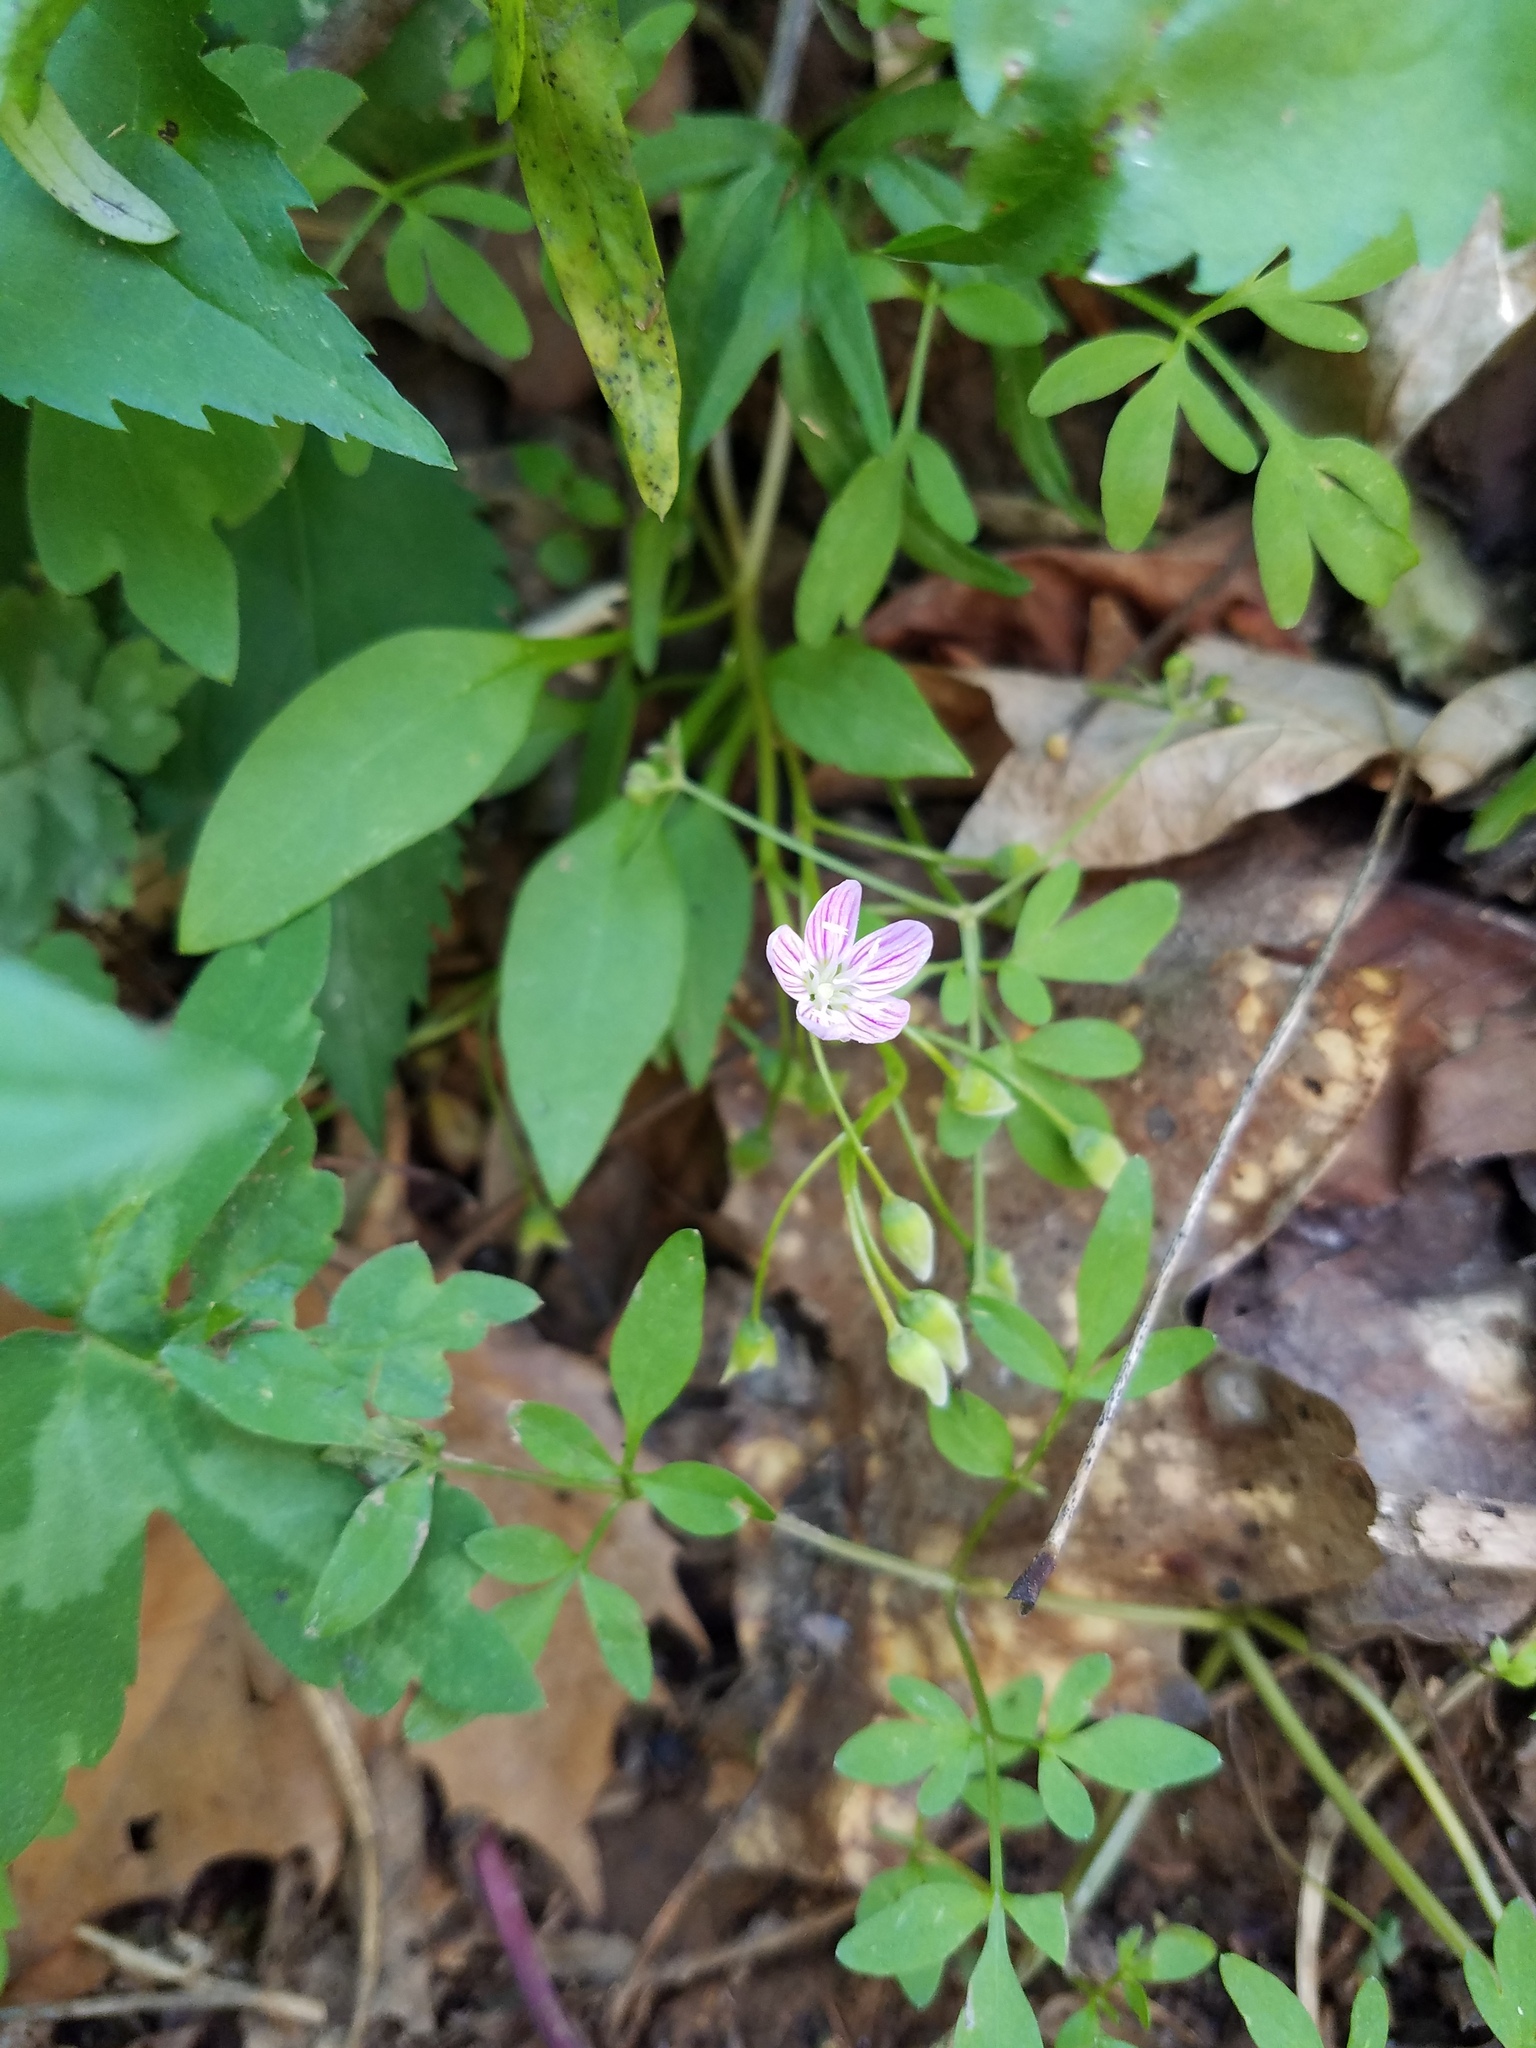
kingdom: Plantae
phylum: Tracheophyta
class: Magnoliopsida
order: Caryophyllales
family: Montiaceae
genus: Claytonia
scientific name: Claytonia caroliniana
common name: Carolina spring beauty
